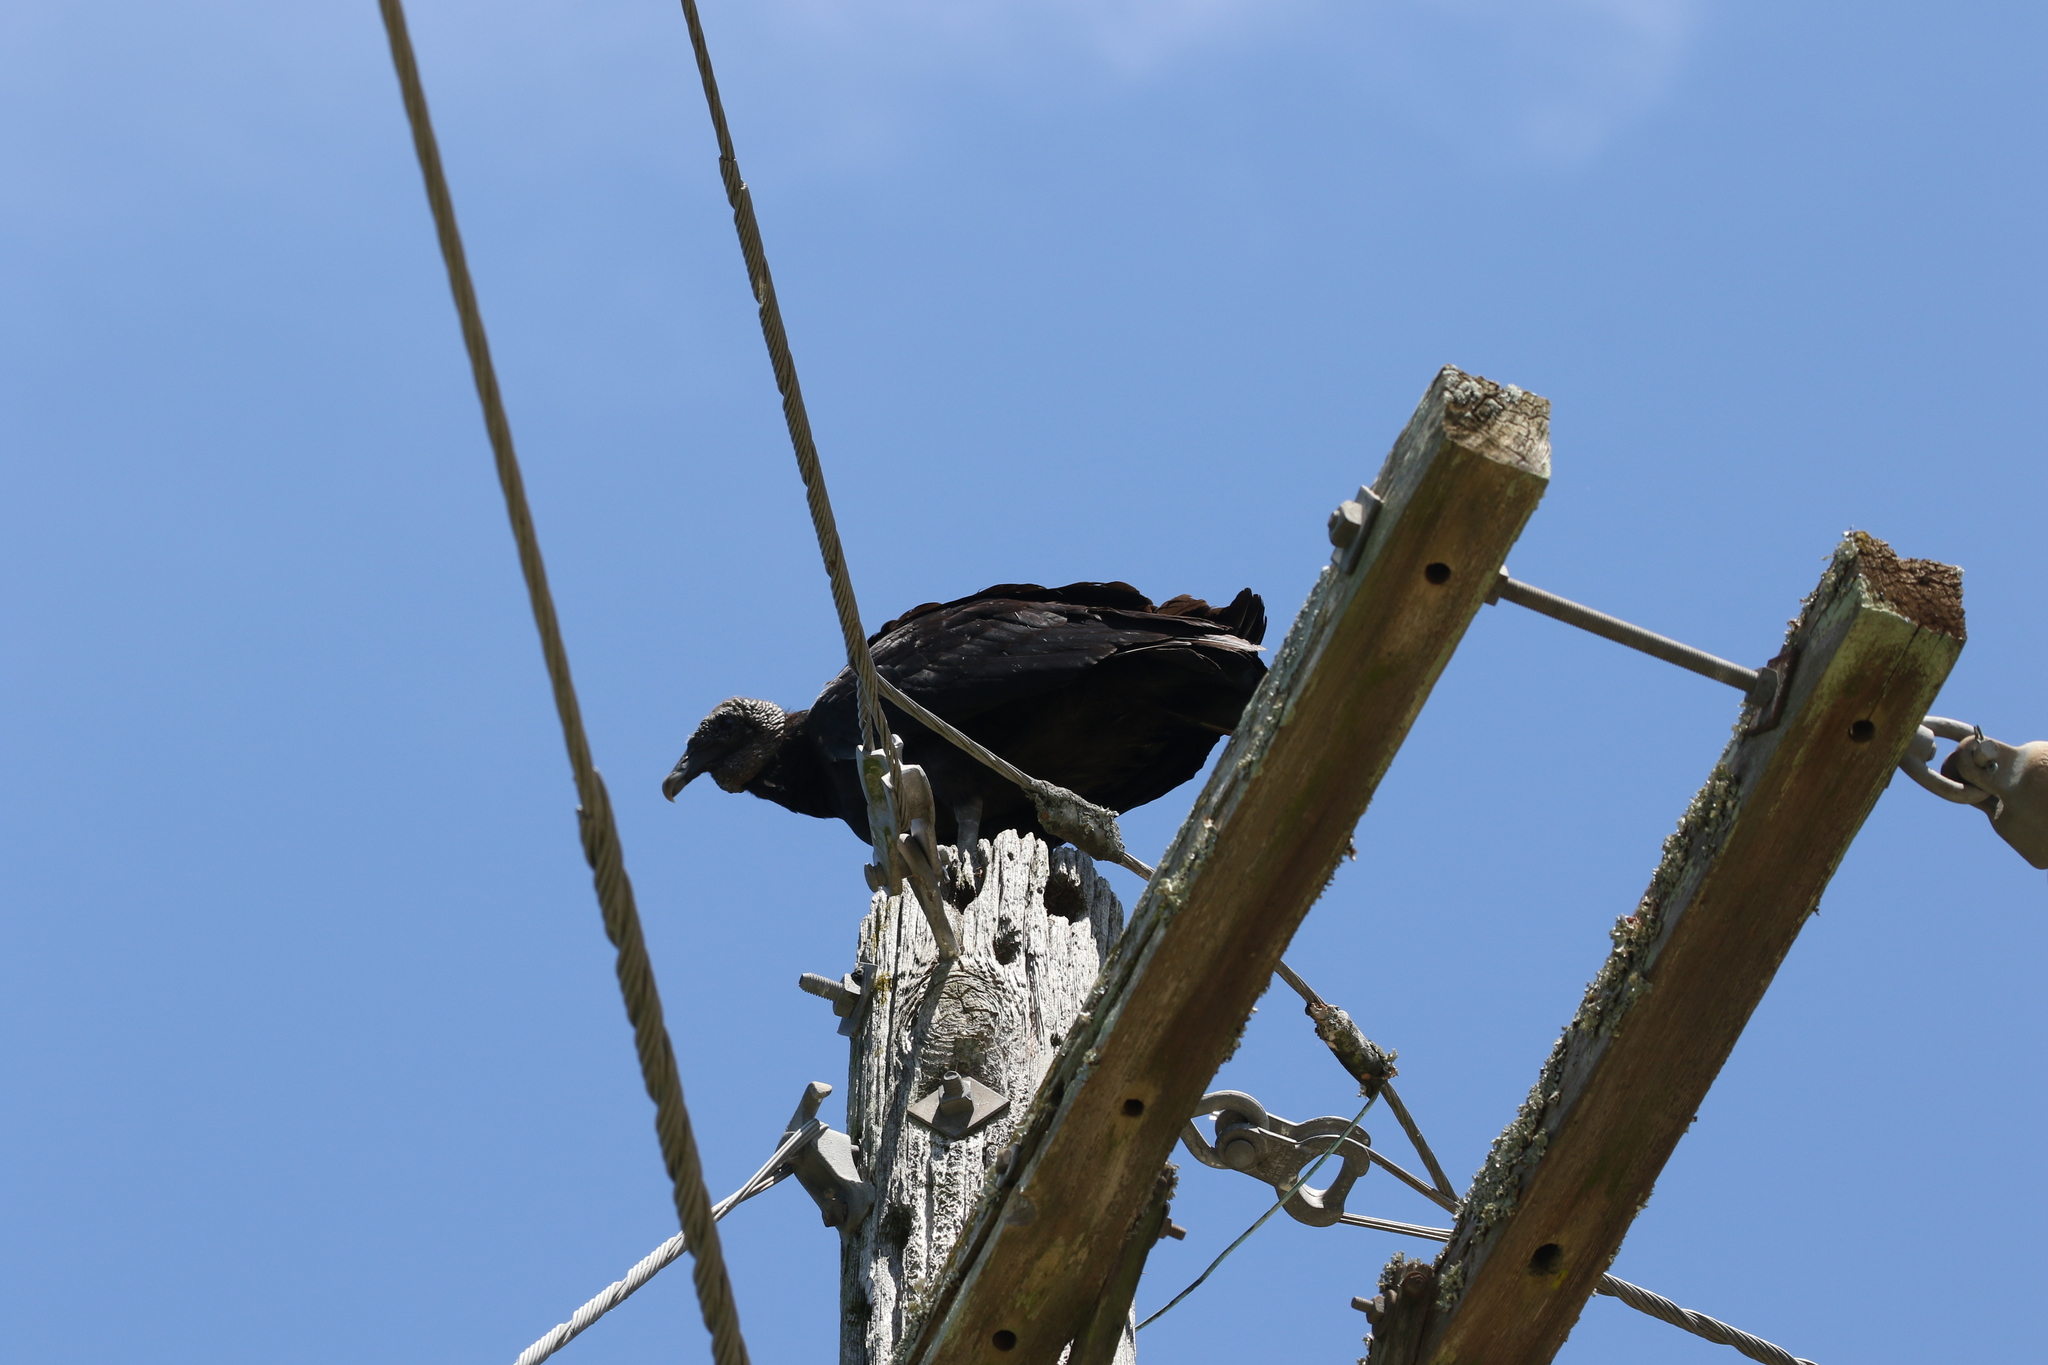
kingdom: Animalia
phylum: Chordata
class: Aves
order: Accipitriformes
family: Cathartidae
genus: Coragyps
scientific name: Coragyps atratus
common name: Black vulture
